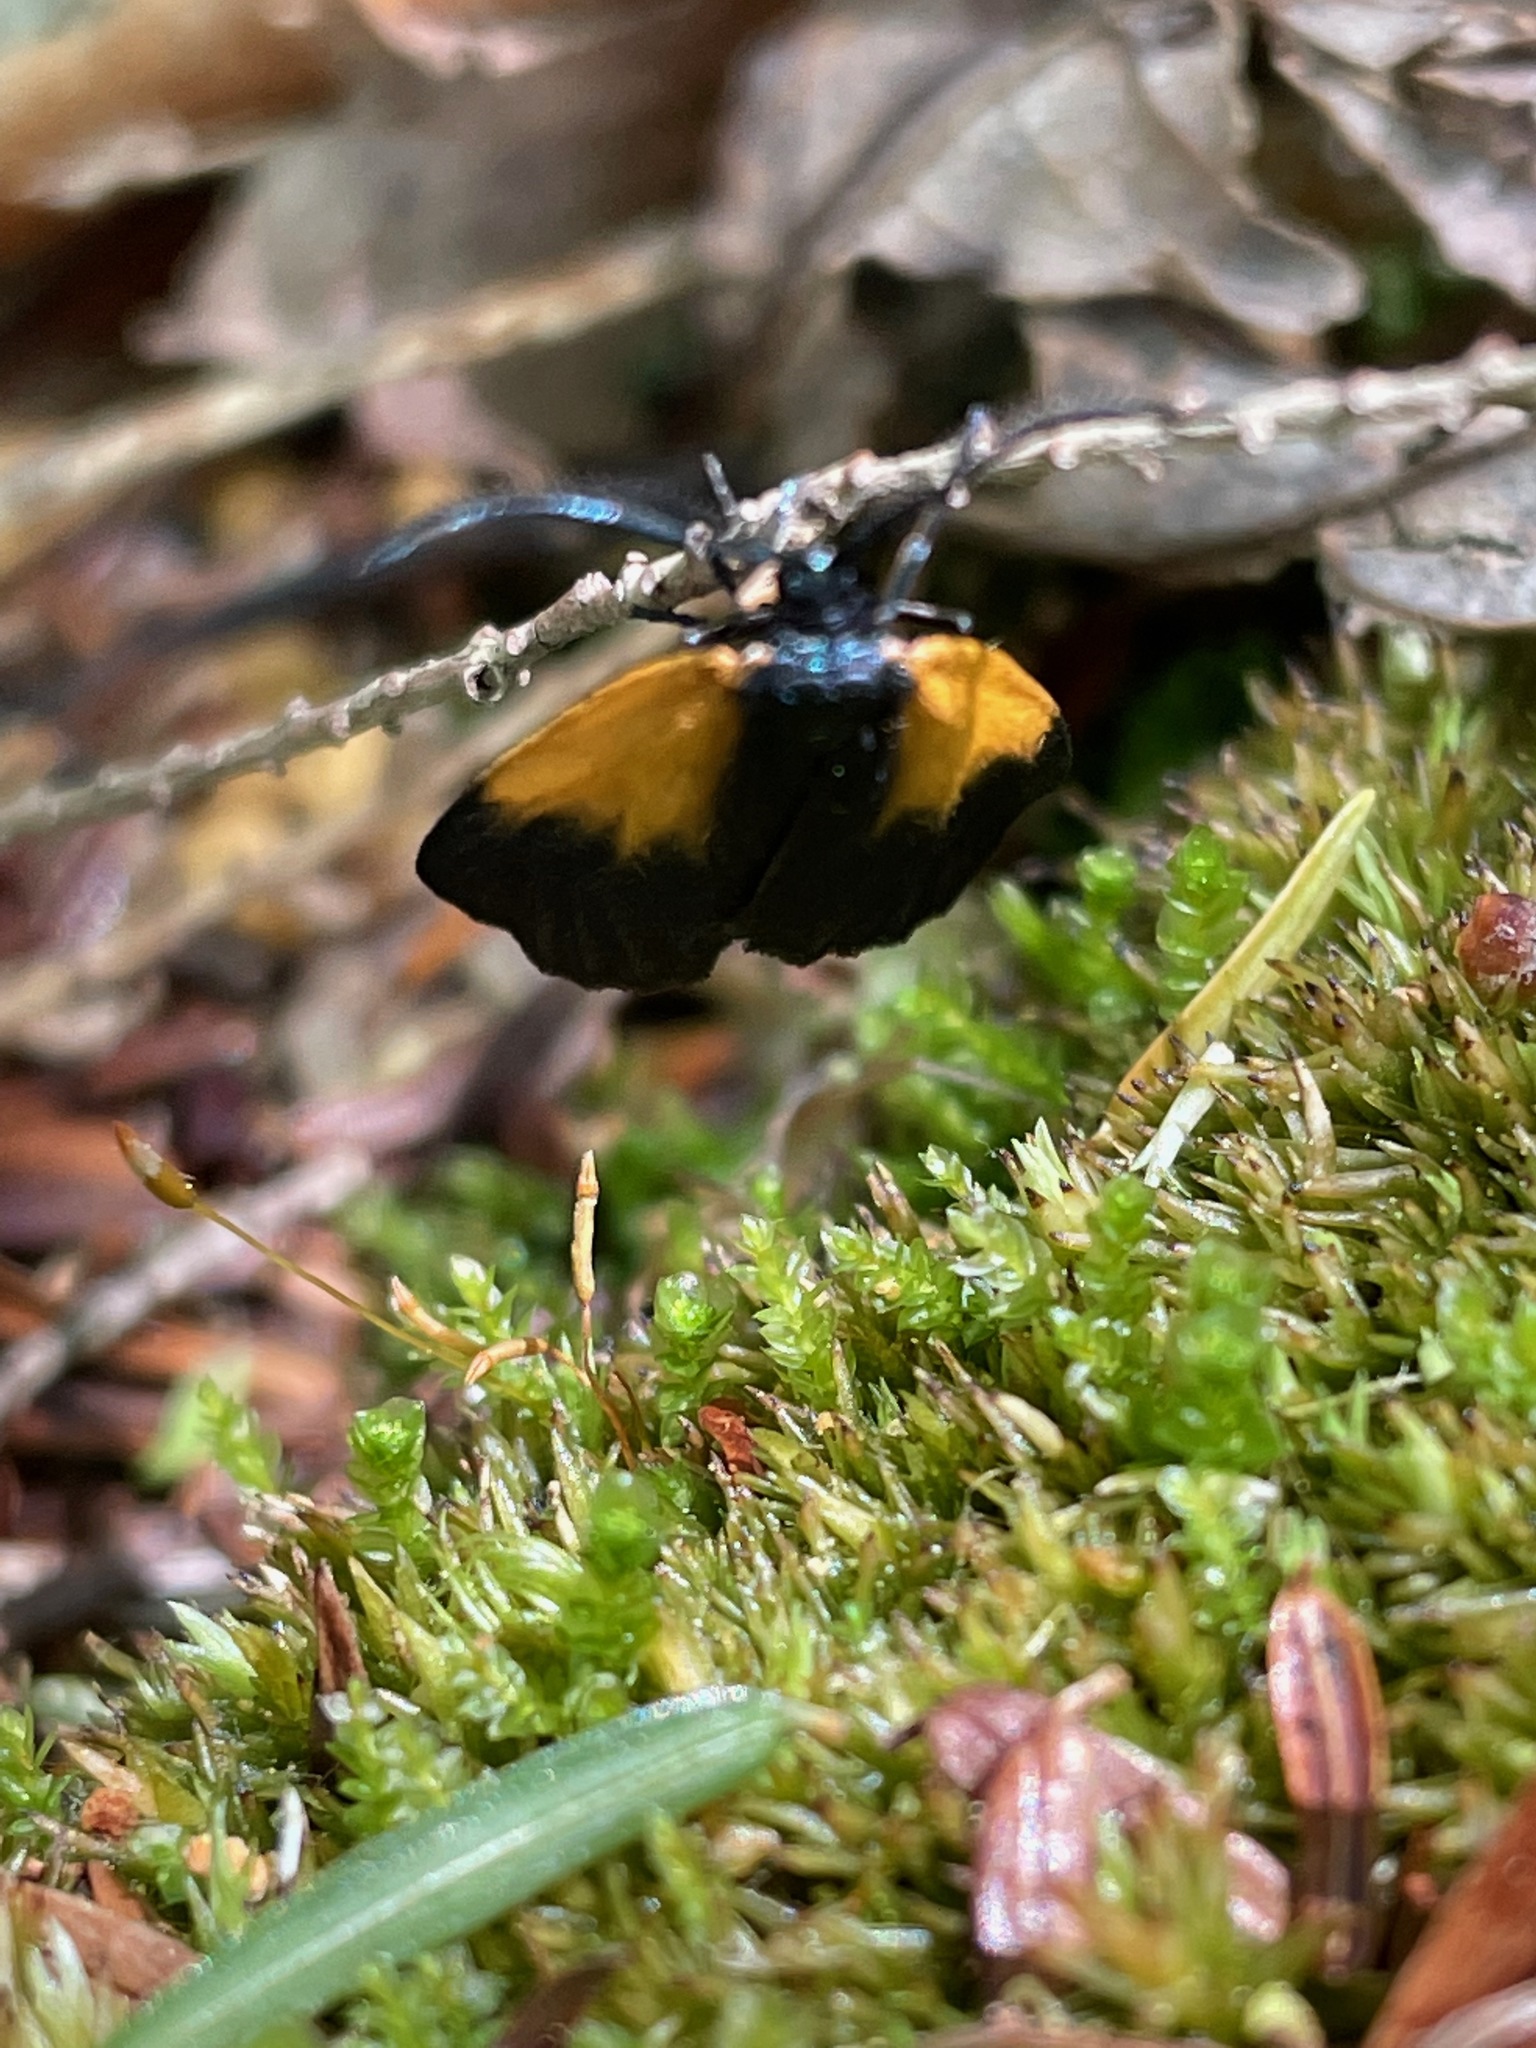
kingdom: Animalia
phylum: Arthropoda
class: Insecta
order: Lepidoptera
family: Zygaenidae
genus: Malthaca
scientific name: Malthaca dimidiata
